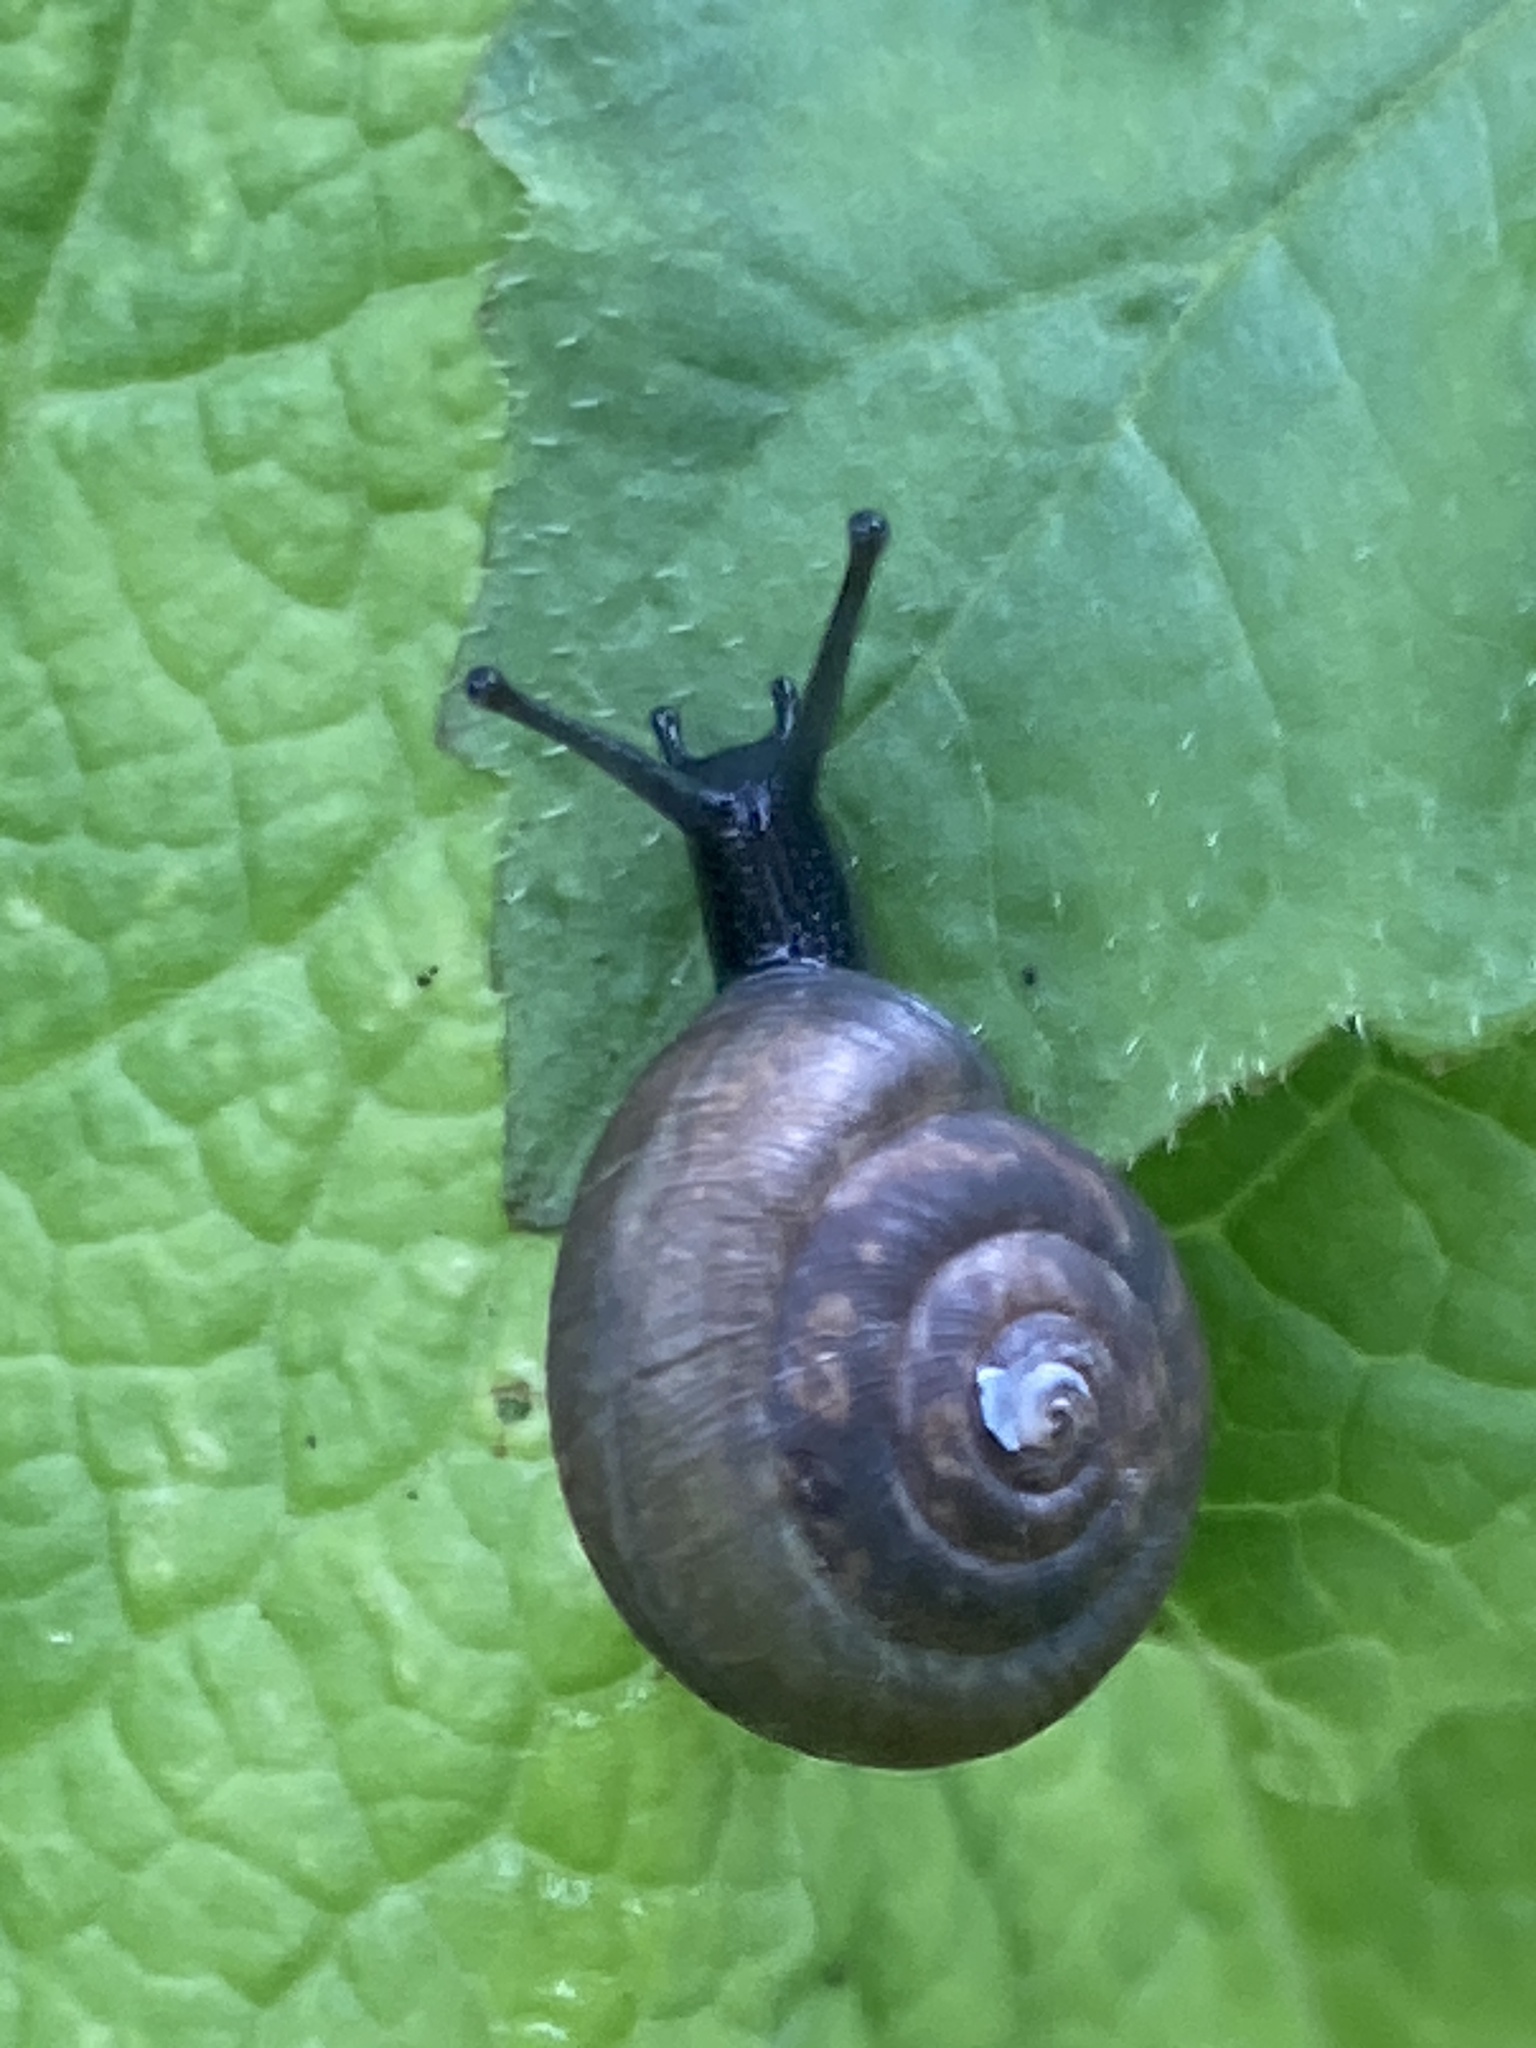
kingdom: Animalia
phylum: Mollusca
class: Gastropoda
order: Stylommatophora
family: Hygromiidae
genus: Trochulus
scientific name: Trochulus striolatus
